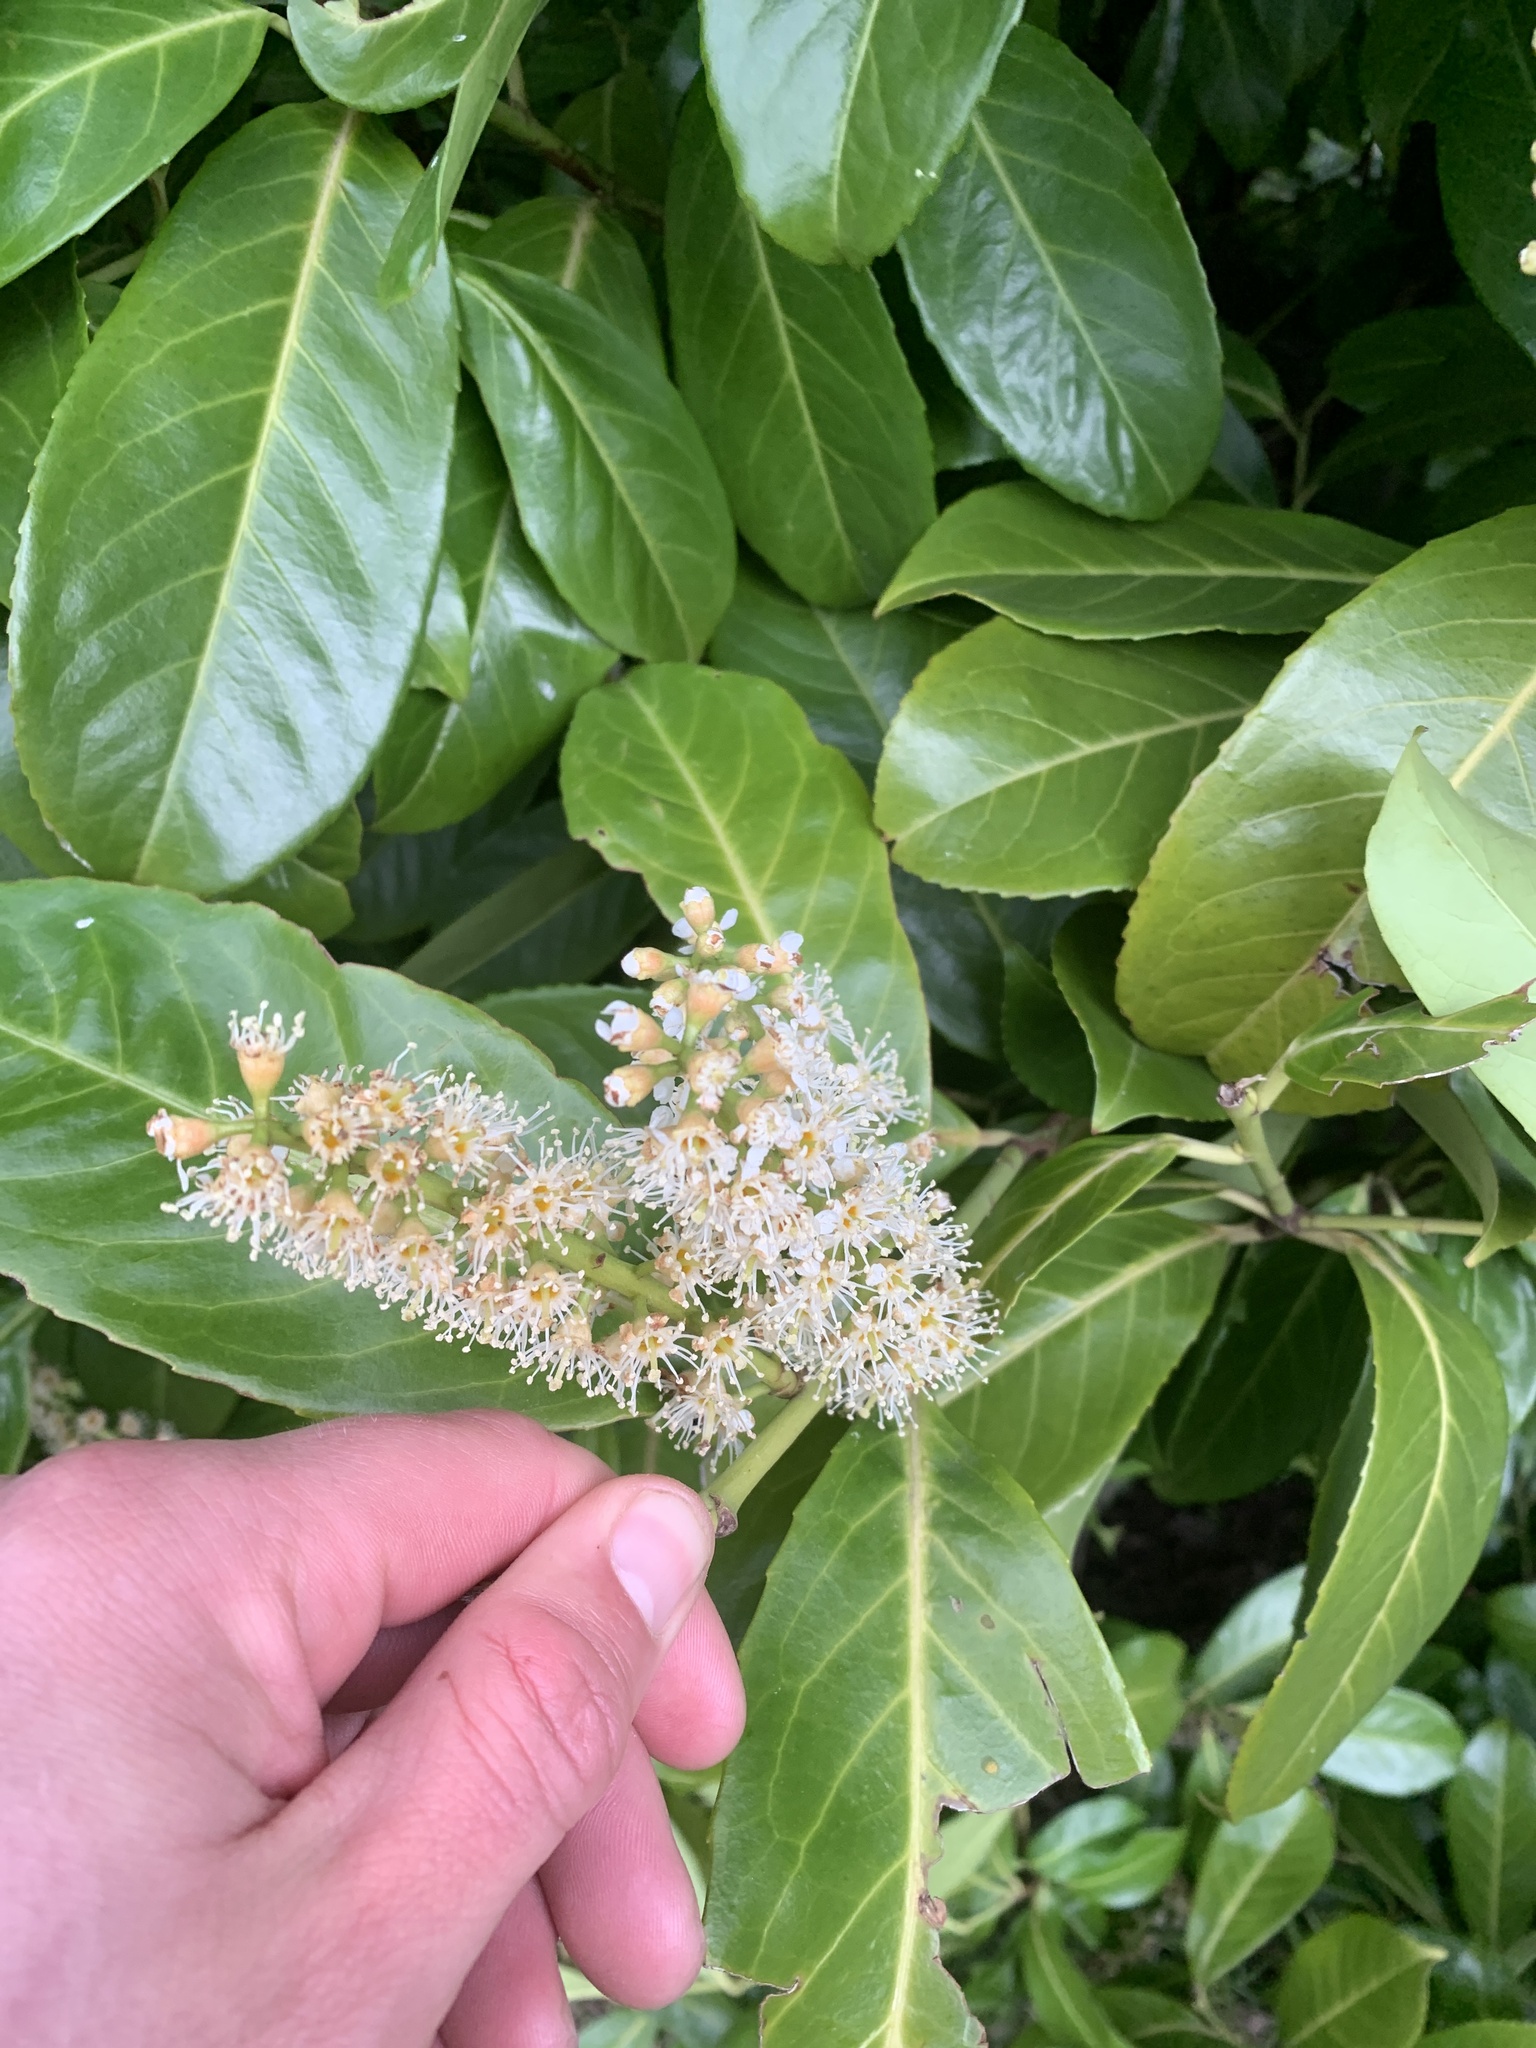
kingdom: Plantae
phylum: Tracheophyta
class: Magnoliopsida
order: Rosales
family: Rosaceae
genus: Prunus
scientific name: Prunus laurocerasus
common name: Cherry laurel
